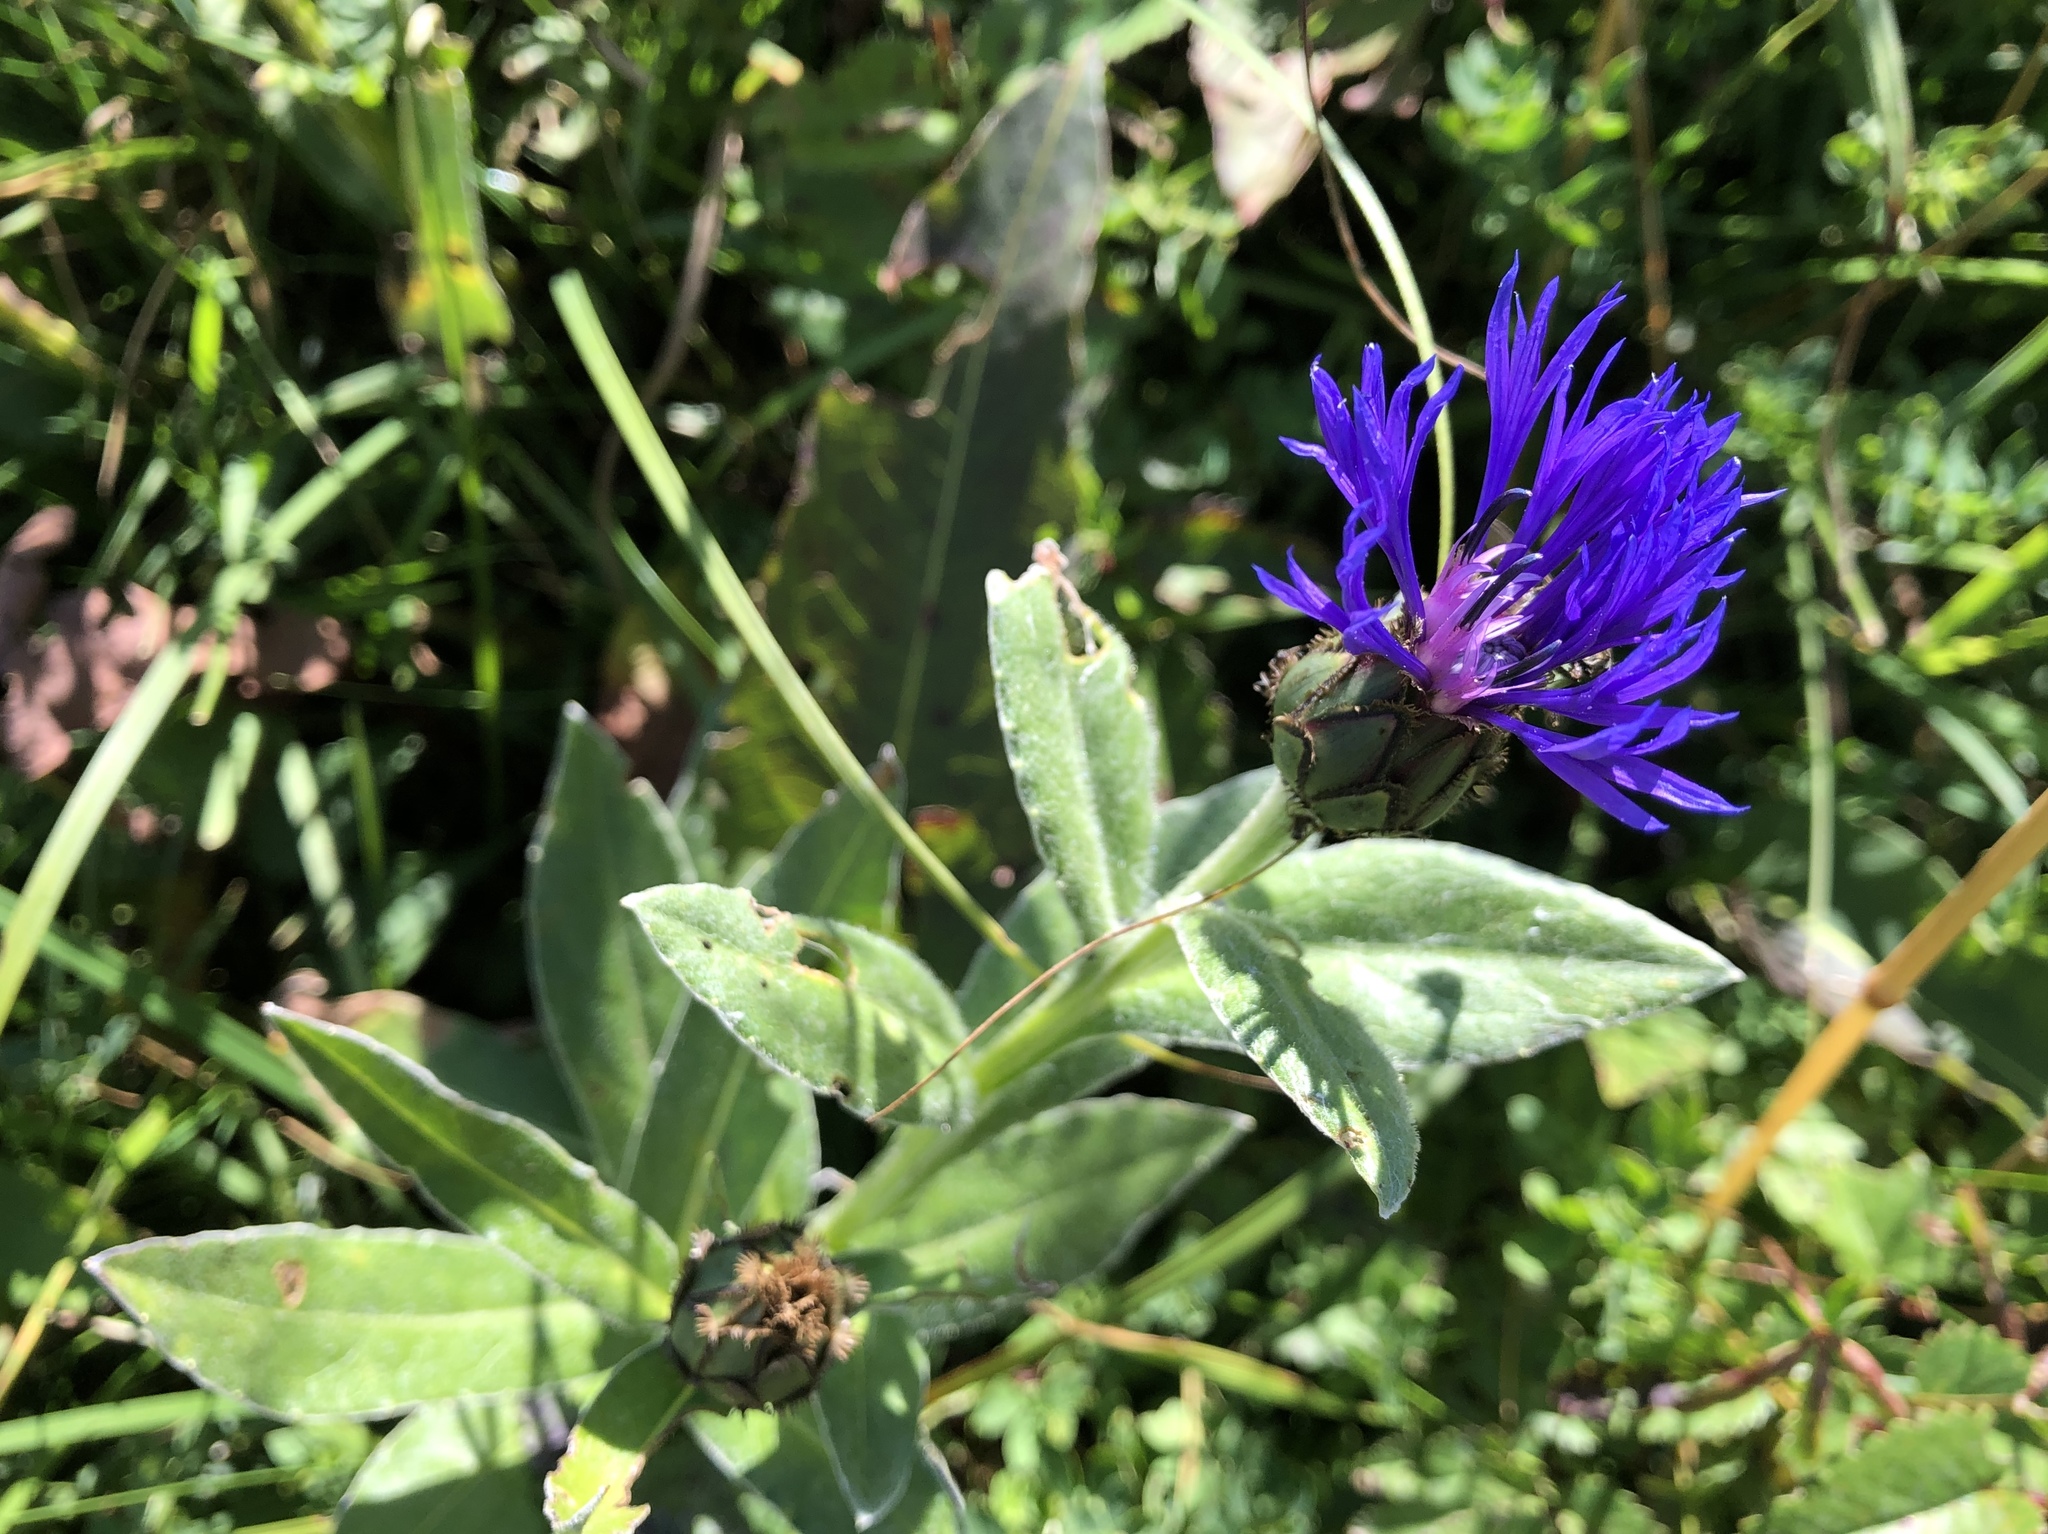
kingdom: Plantae
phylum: Tracheophyta
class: Magnoliopsida
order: Asterales
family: Asteraceae
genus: Centaurea
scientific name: Centaurea montana
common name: Perennial cornflower
